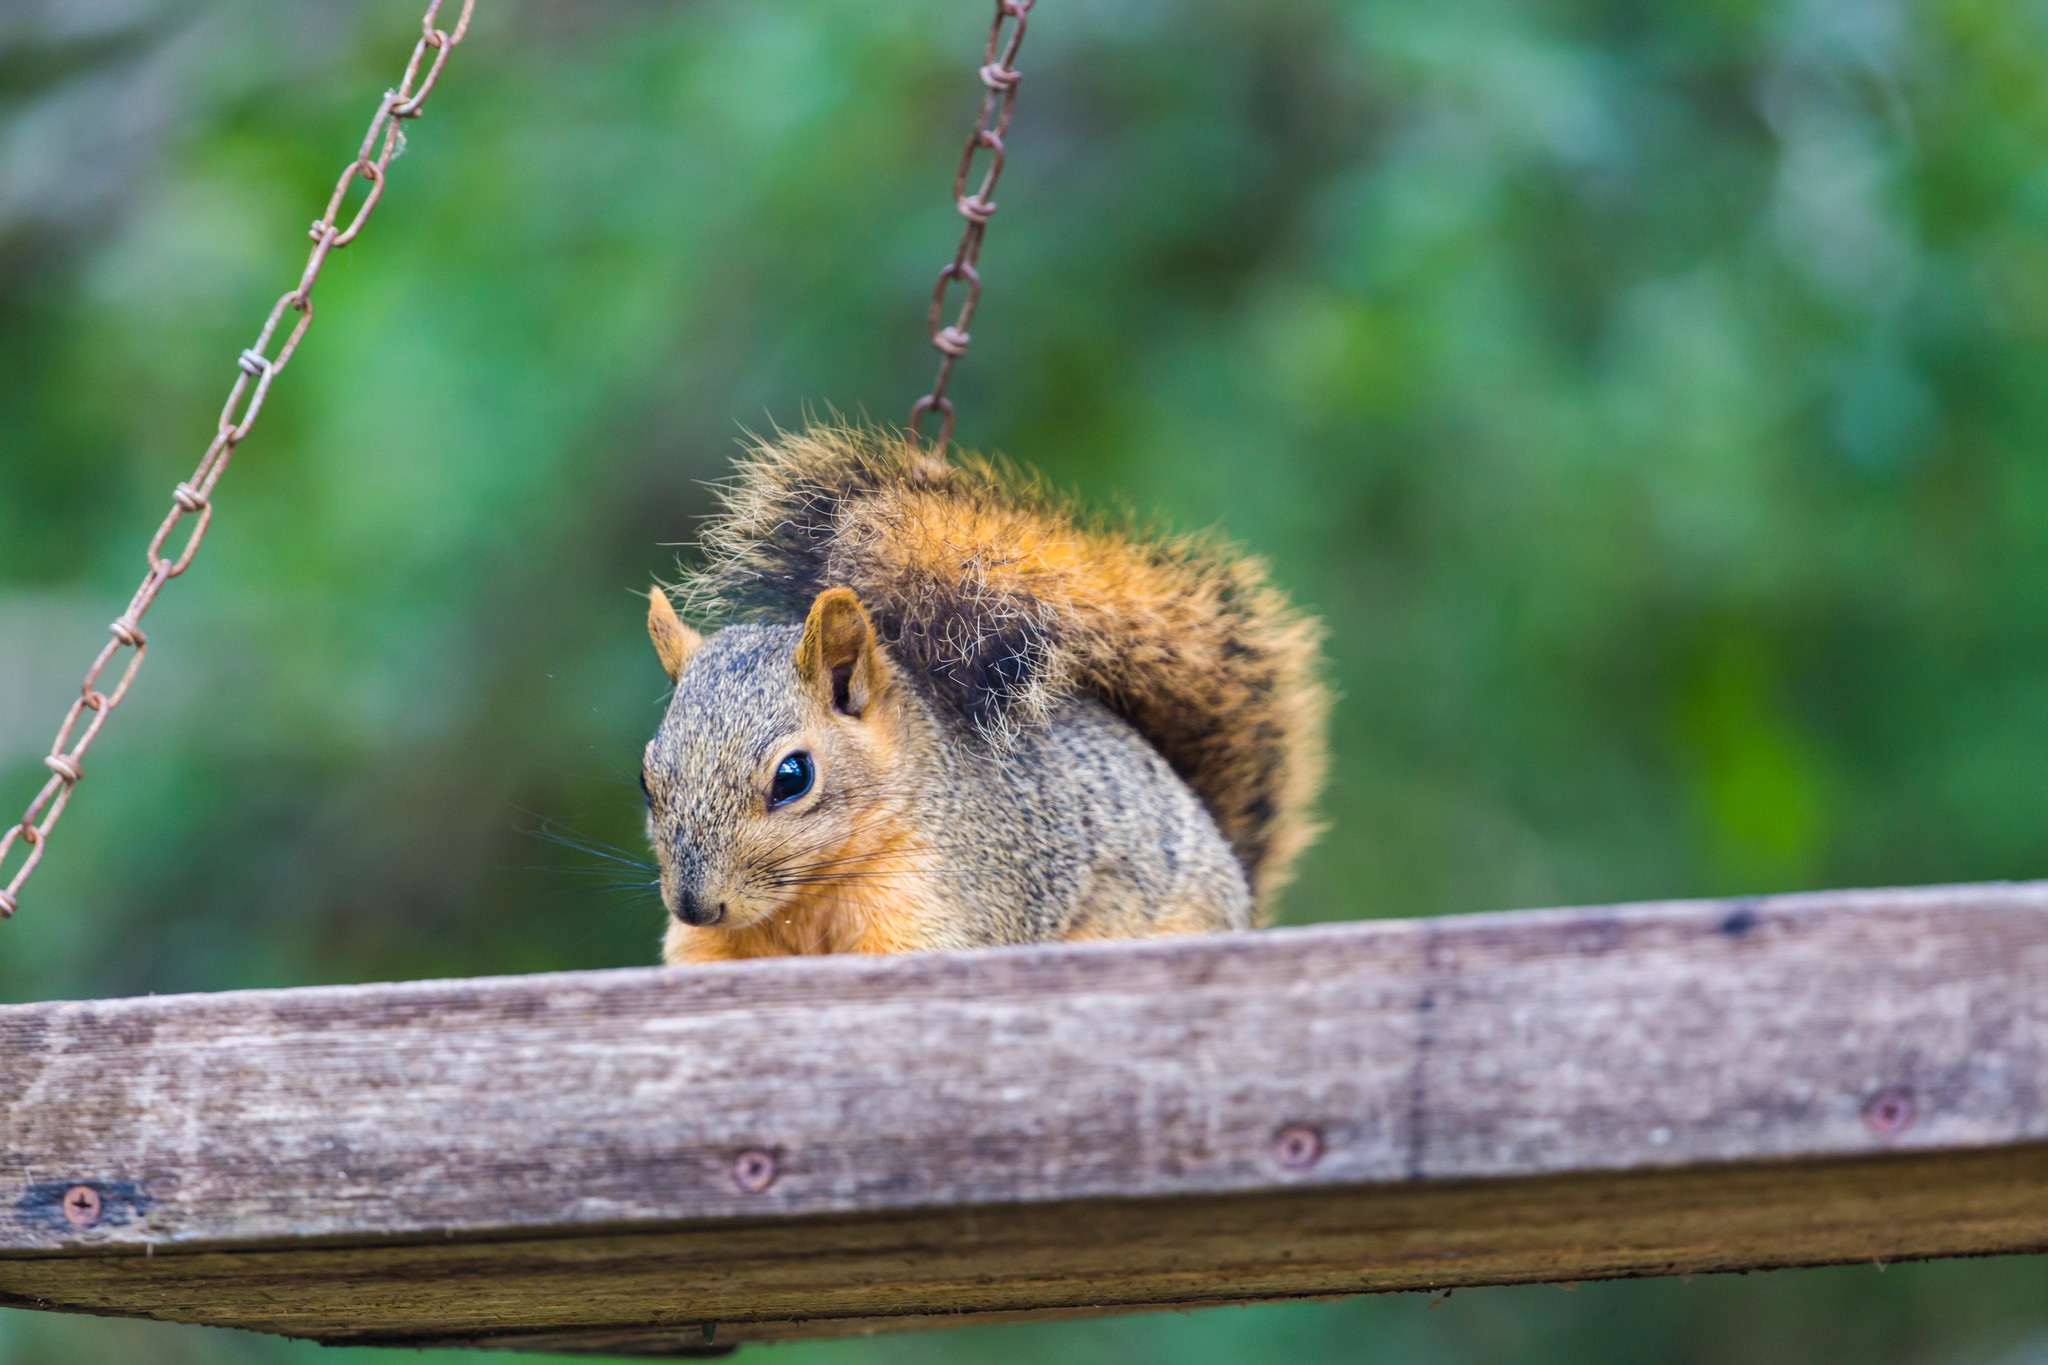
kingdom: Animalia
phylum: Chordata
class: Mammalia
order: Rodentia
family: Sciuridae
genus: Sciurus
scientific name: Sciurus niger
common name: Fox squirrel
